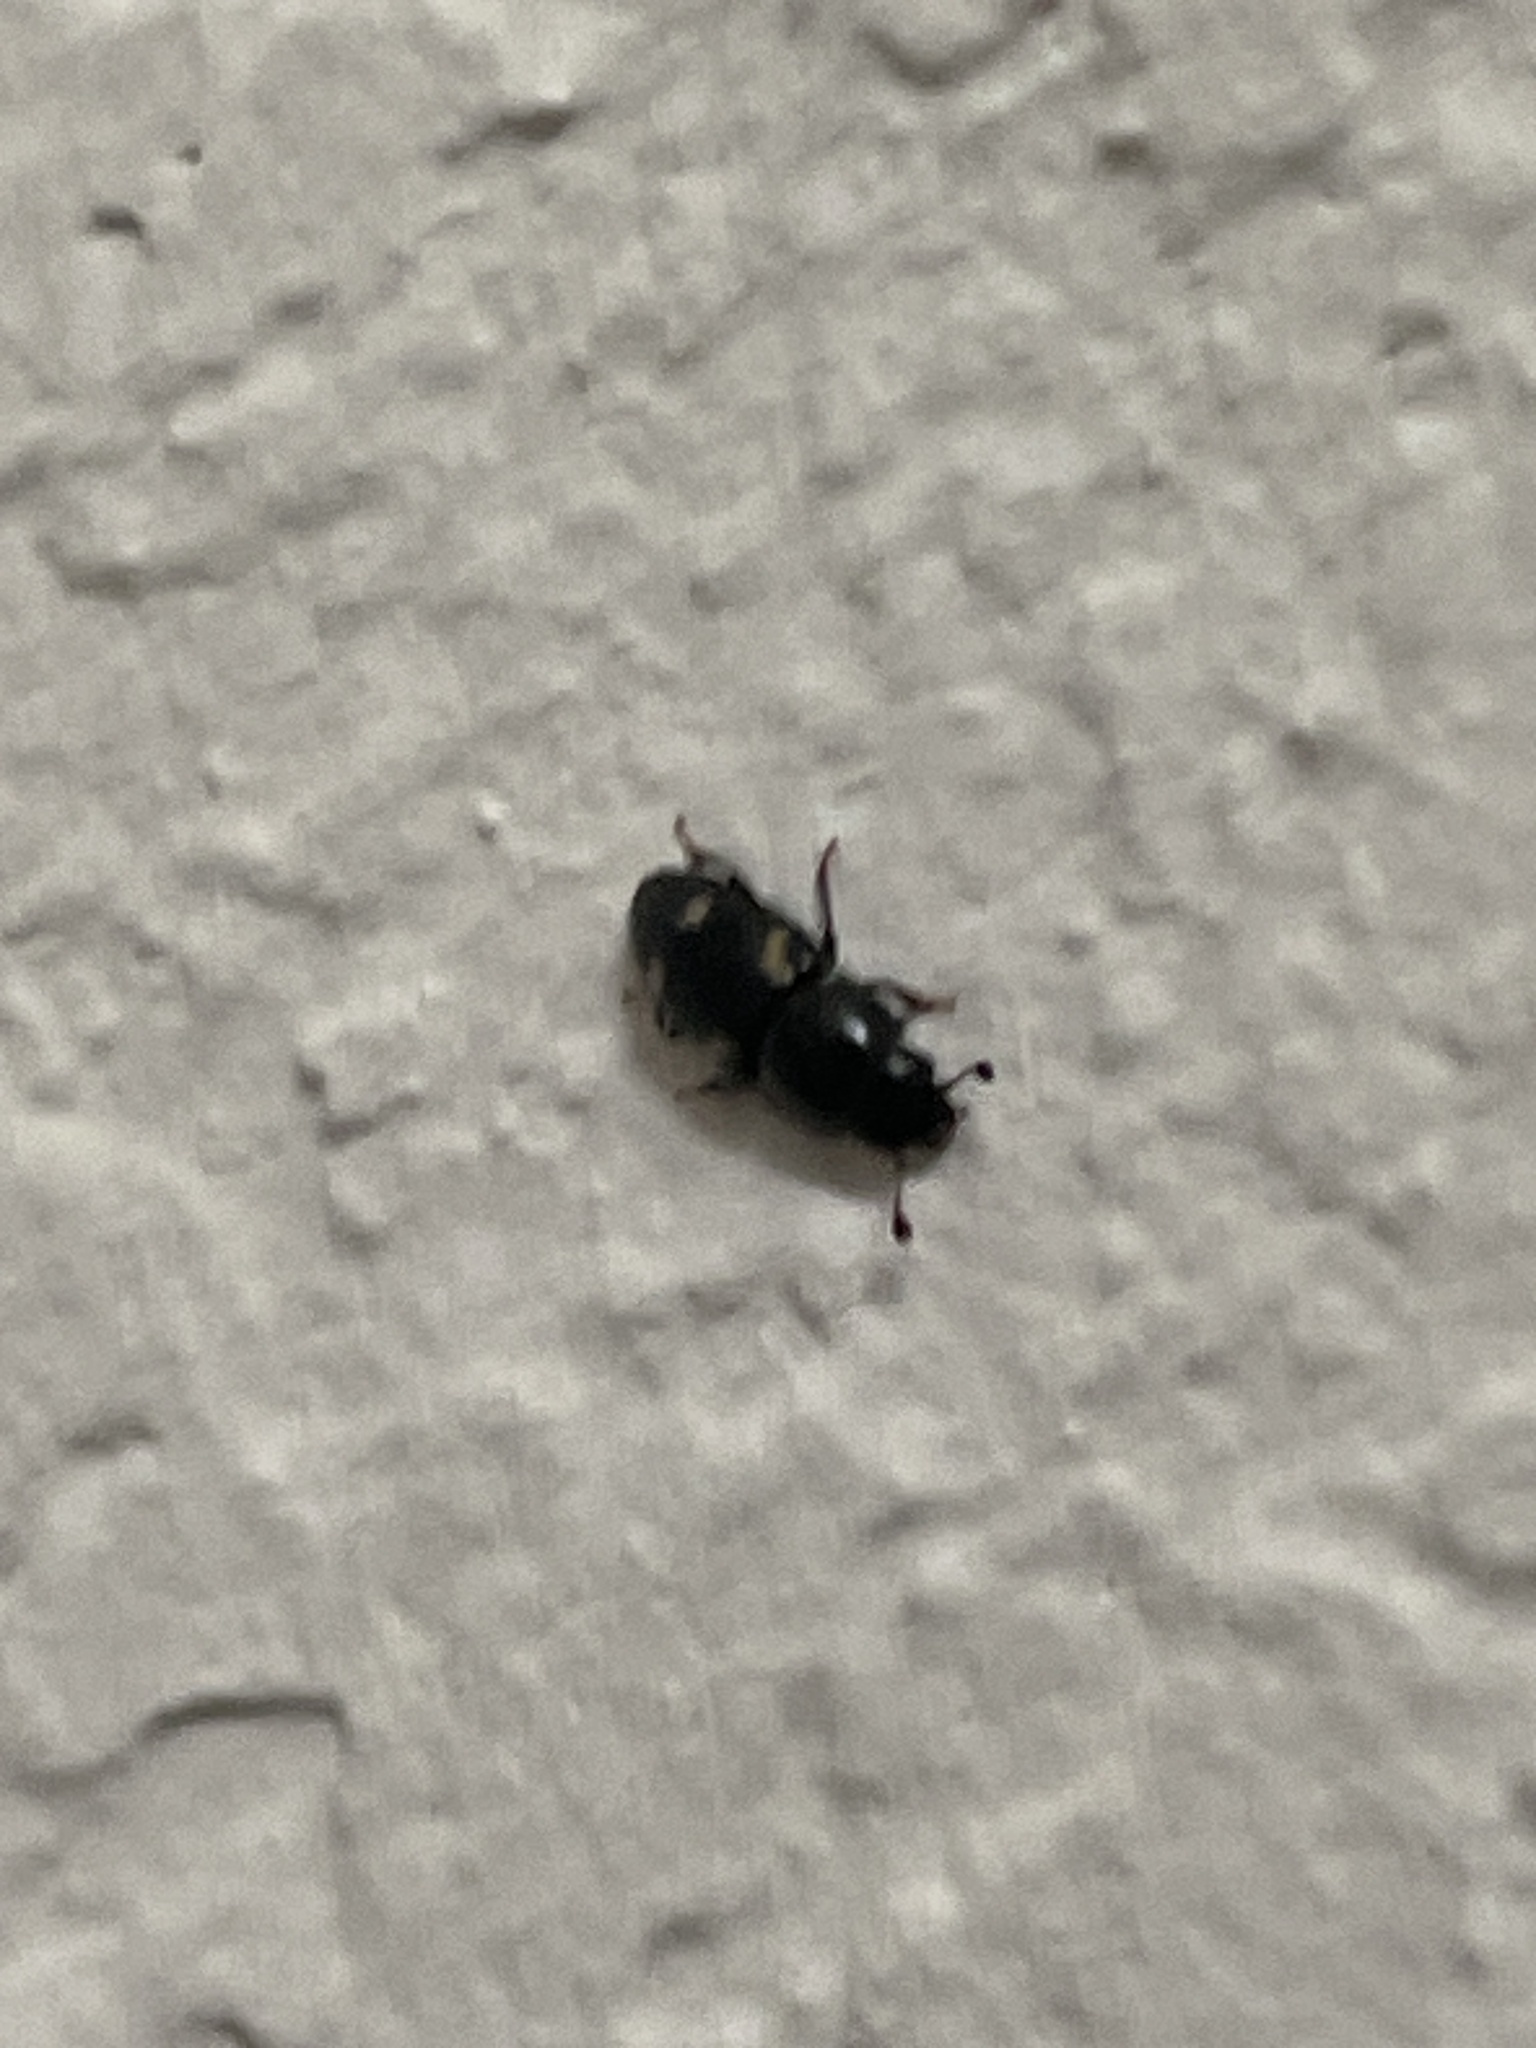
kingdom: Animalia
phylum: Arthropoda
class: Insecta
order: Coleoptera
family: Nitidulidae
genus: Glischrochilus
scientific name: Glischrochilus quadrisignatus
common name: Picnic beetle
